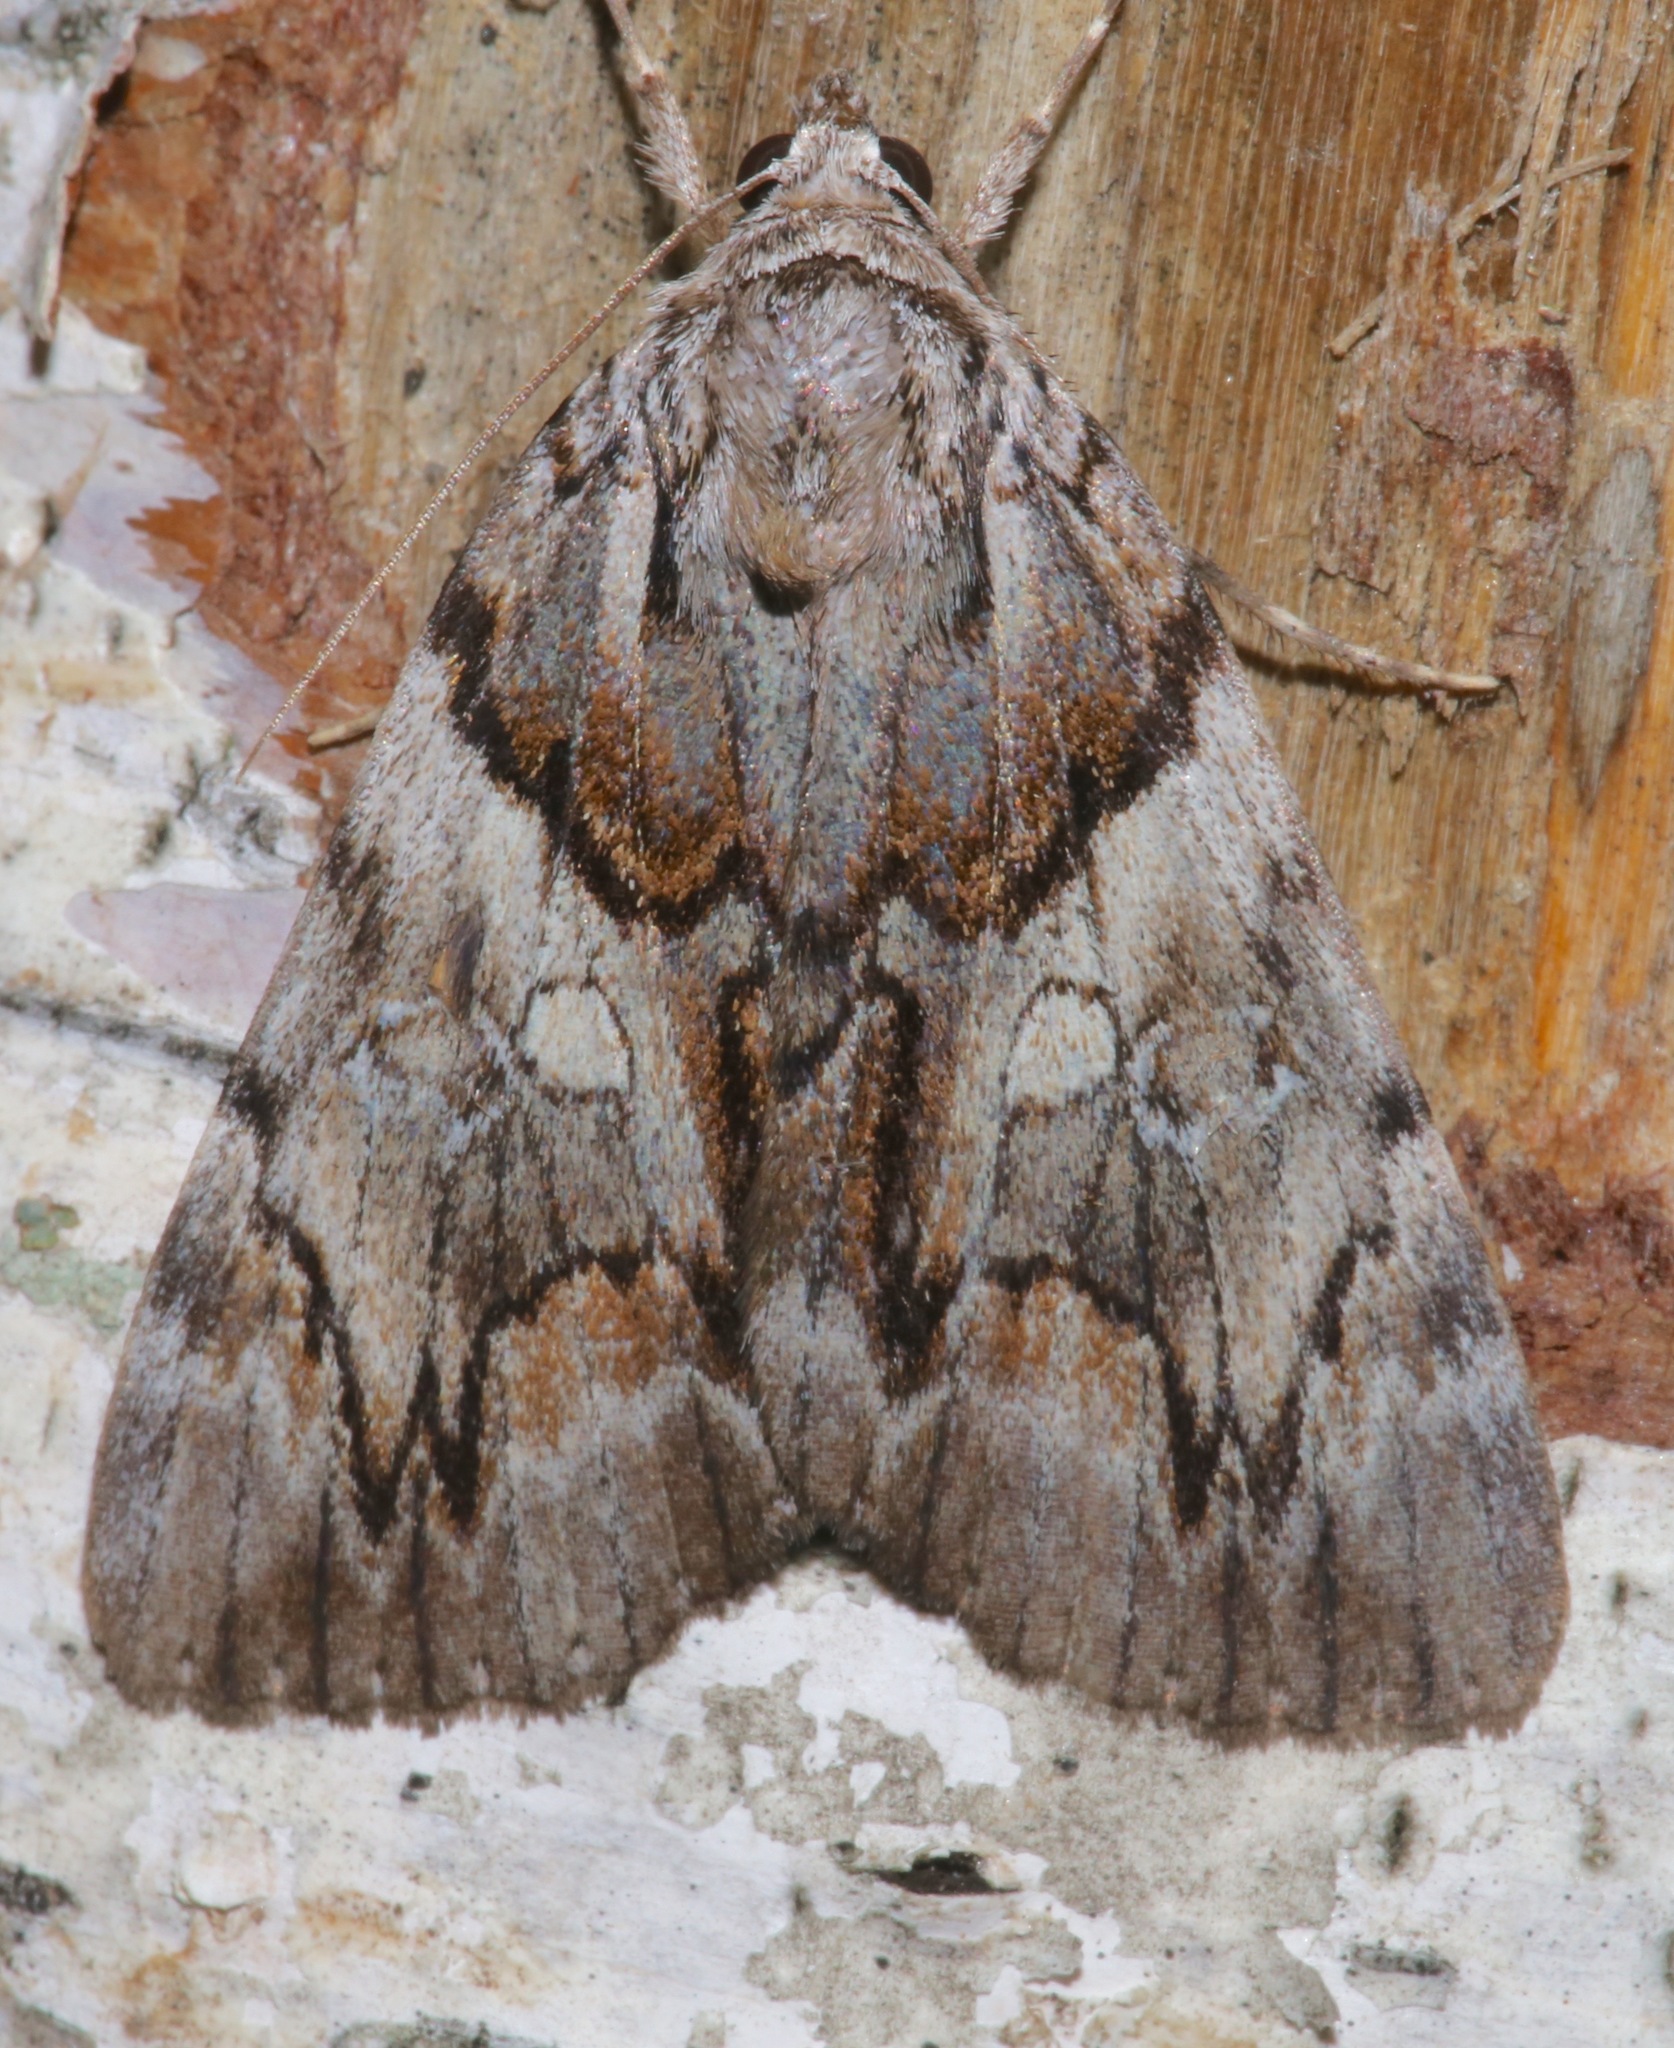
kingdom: Animalia
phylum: Arthropoda
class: Insecta
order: Lepidoptera
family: Erebidae
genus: Catocala
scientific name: Catocala blandula
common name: Charming underwing
